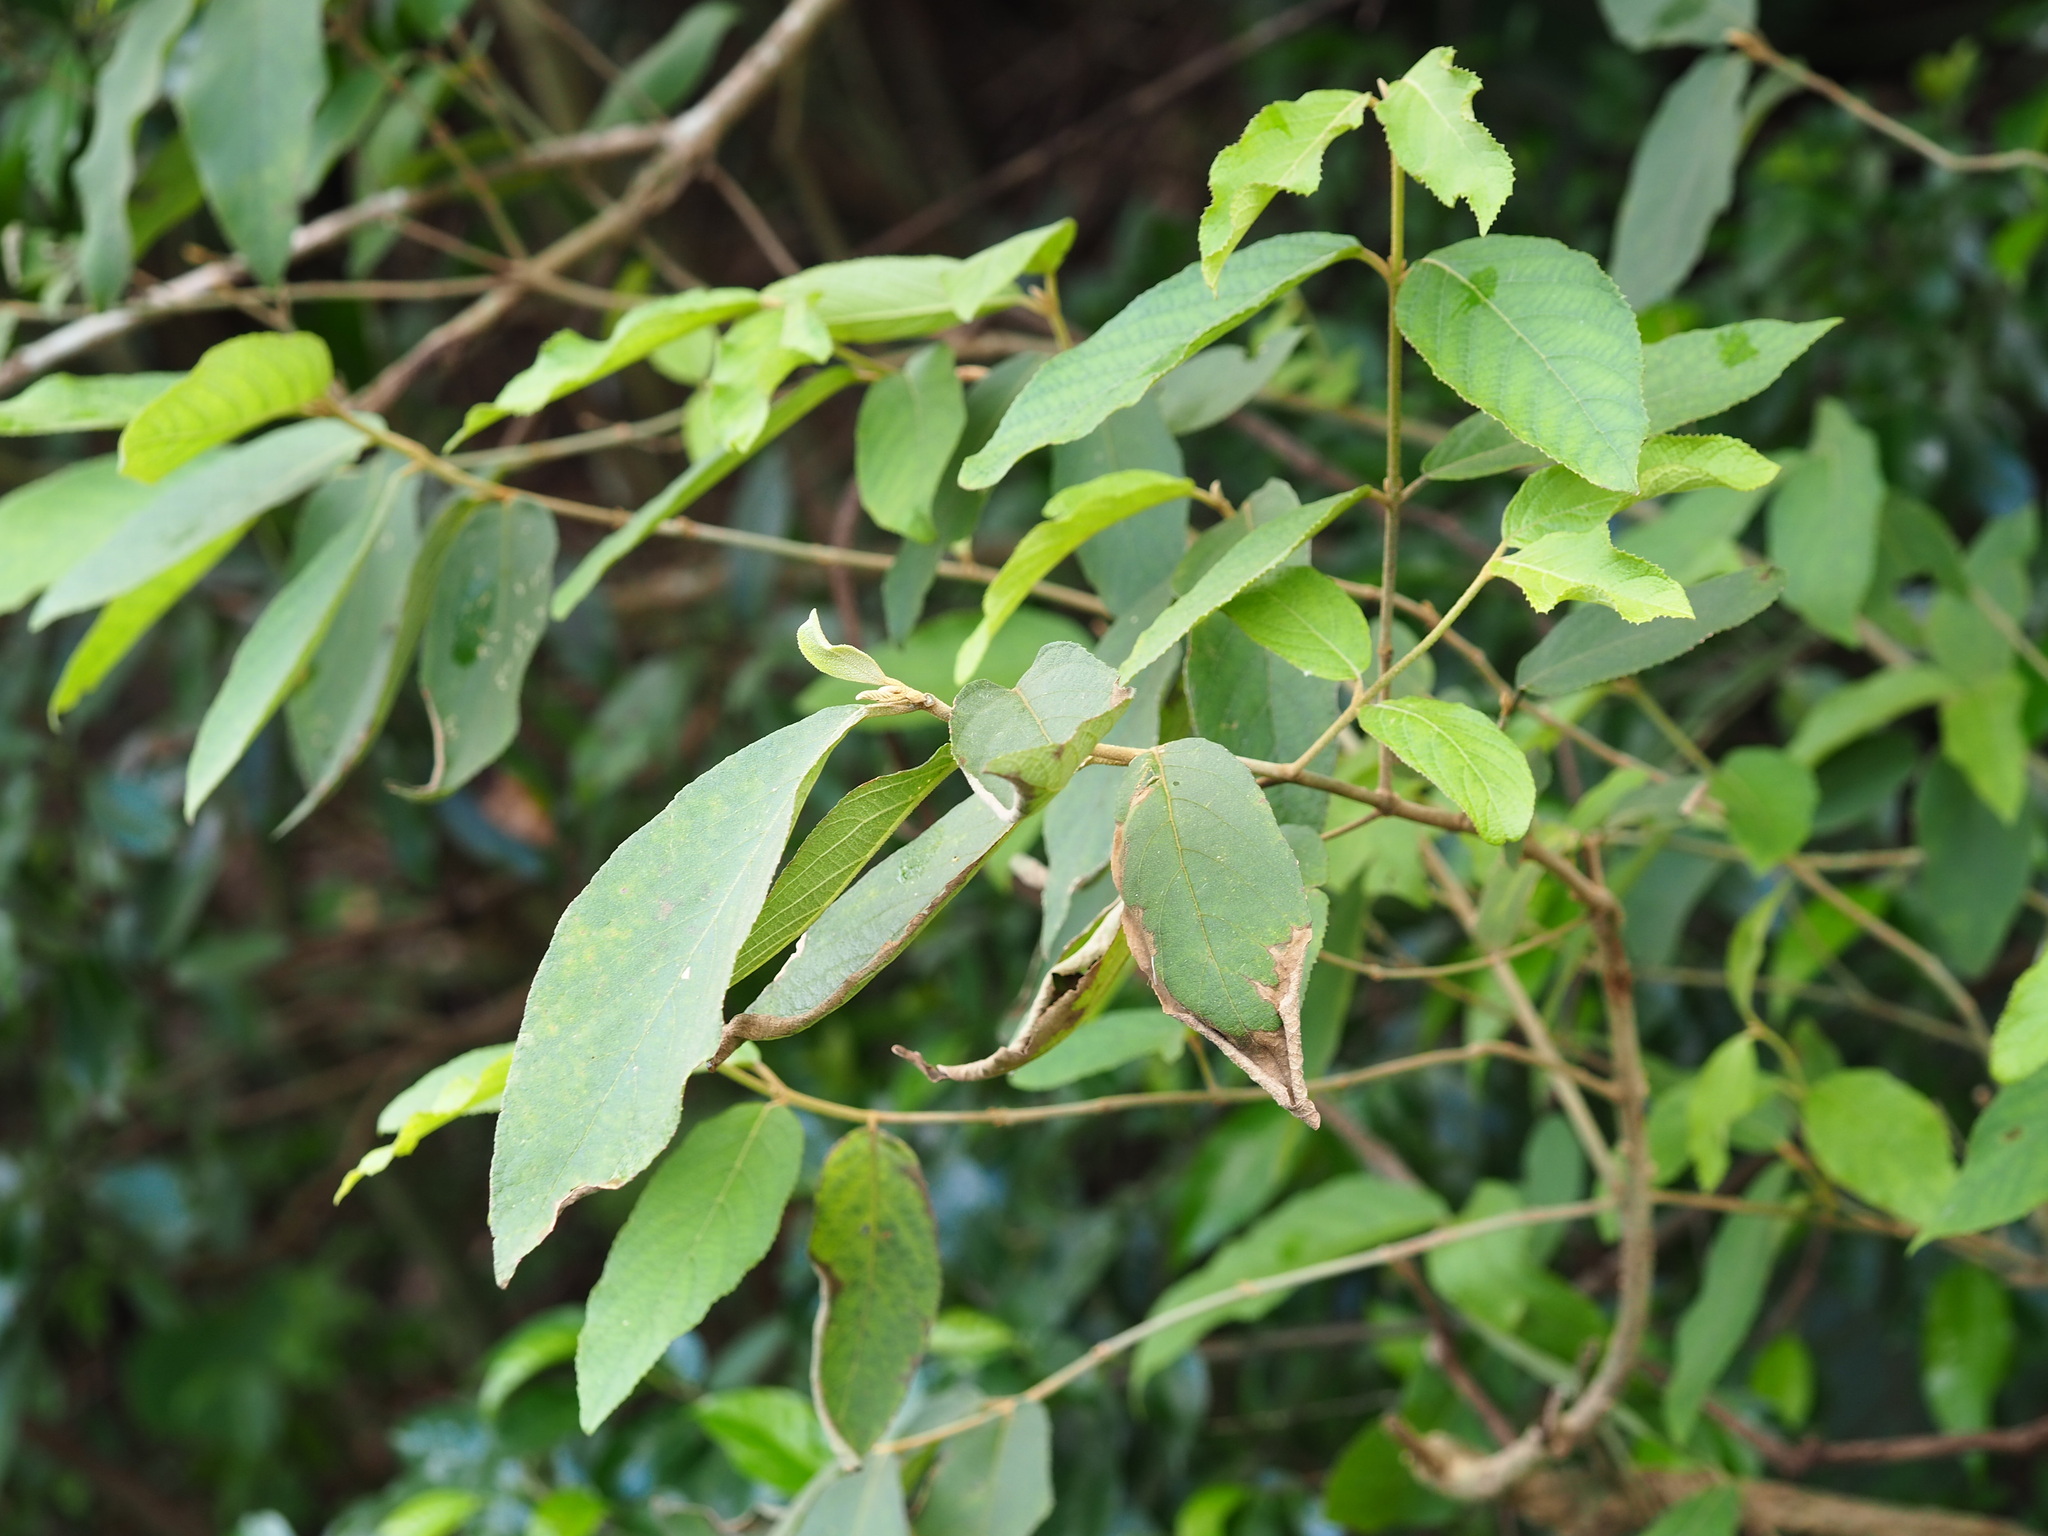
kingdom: Plantae
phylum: Tracheophyta
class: Magnoliopsida
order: Lamiales
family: Lamiaceae
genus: Callicarpa
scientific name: Callicarpa pedunculata
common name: Velvetleaf
